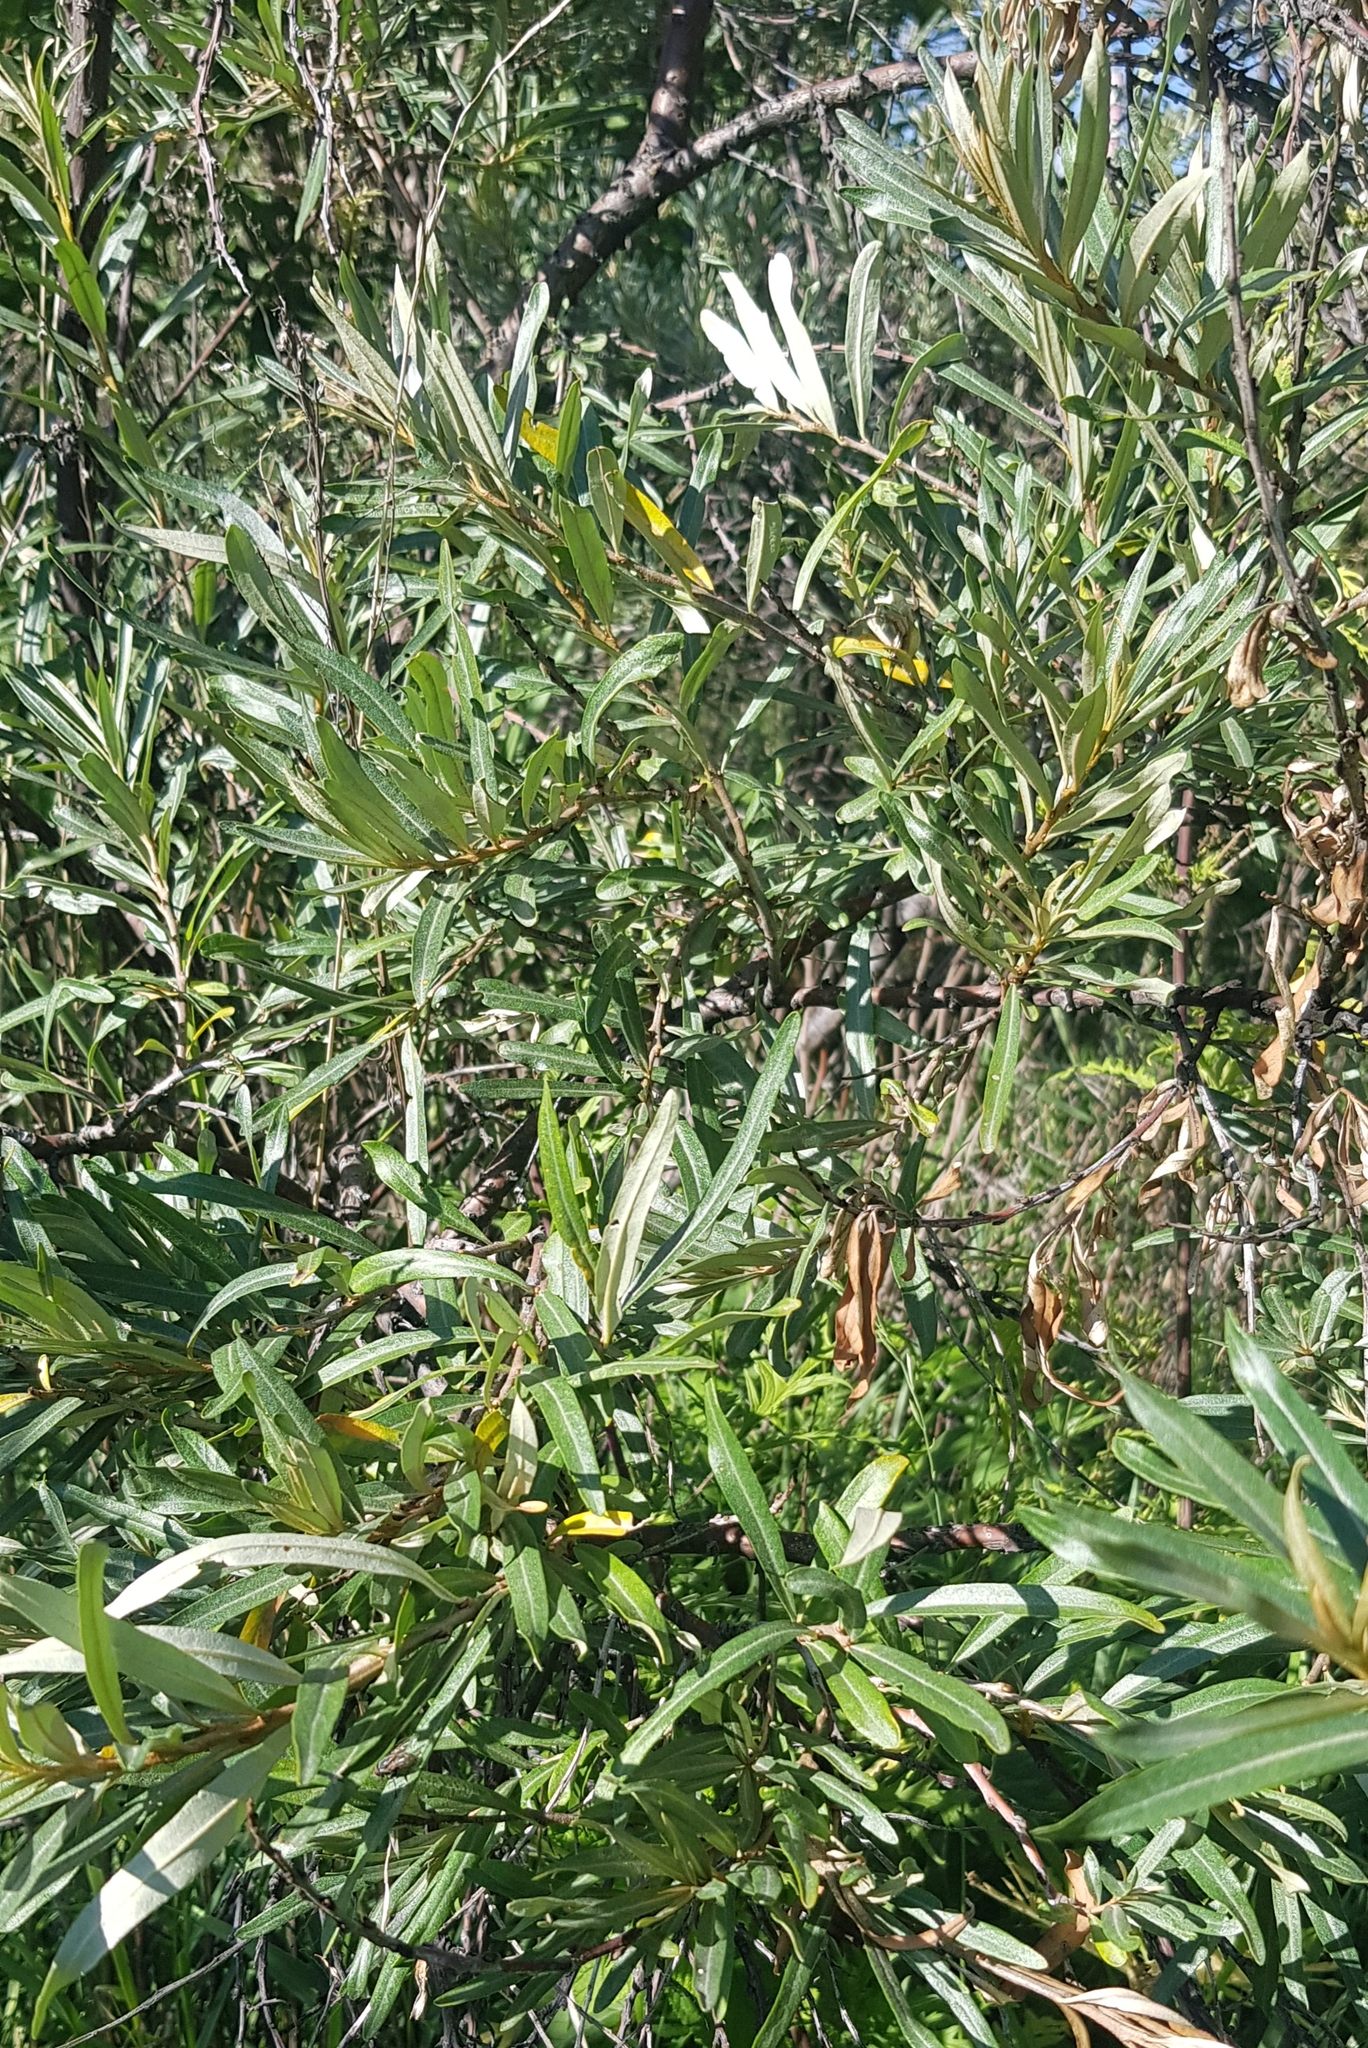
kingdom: Plantae
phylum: Tracheophyta
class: Magnoliopsida
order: Rosales
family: Elaeagnaceae
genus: Hippophae
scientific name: Hippophae rhamnoides
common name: Sea-buckthorn
